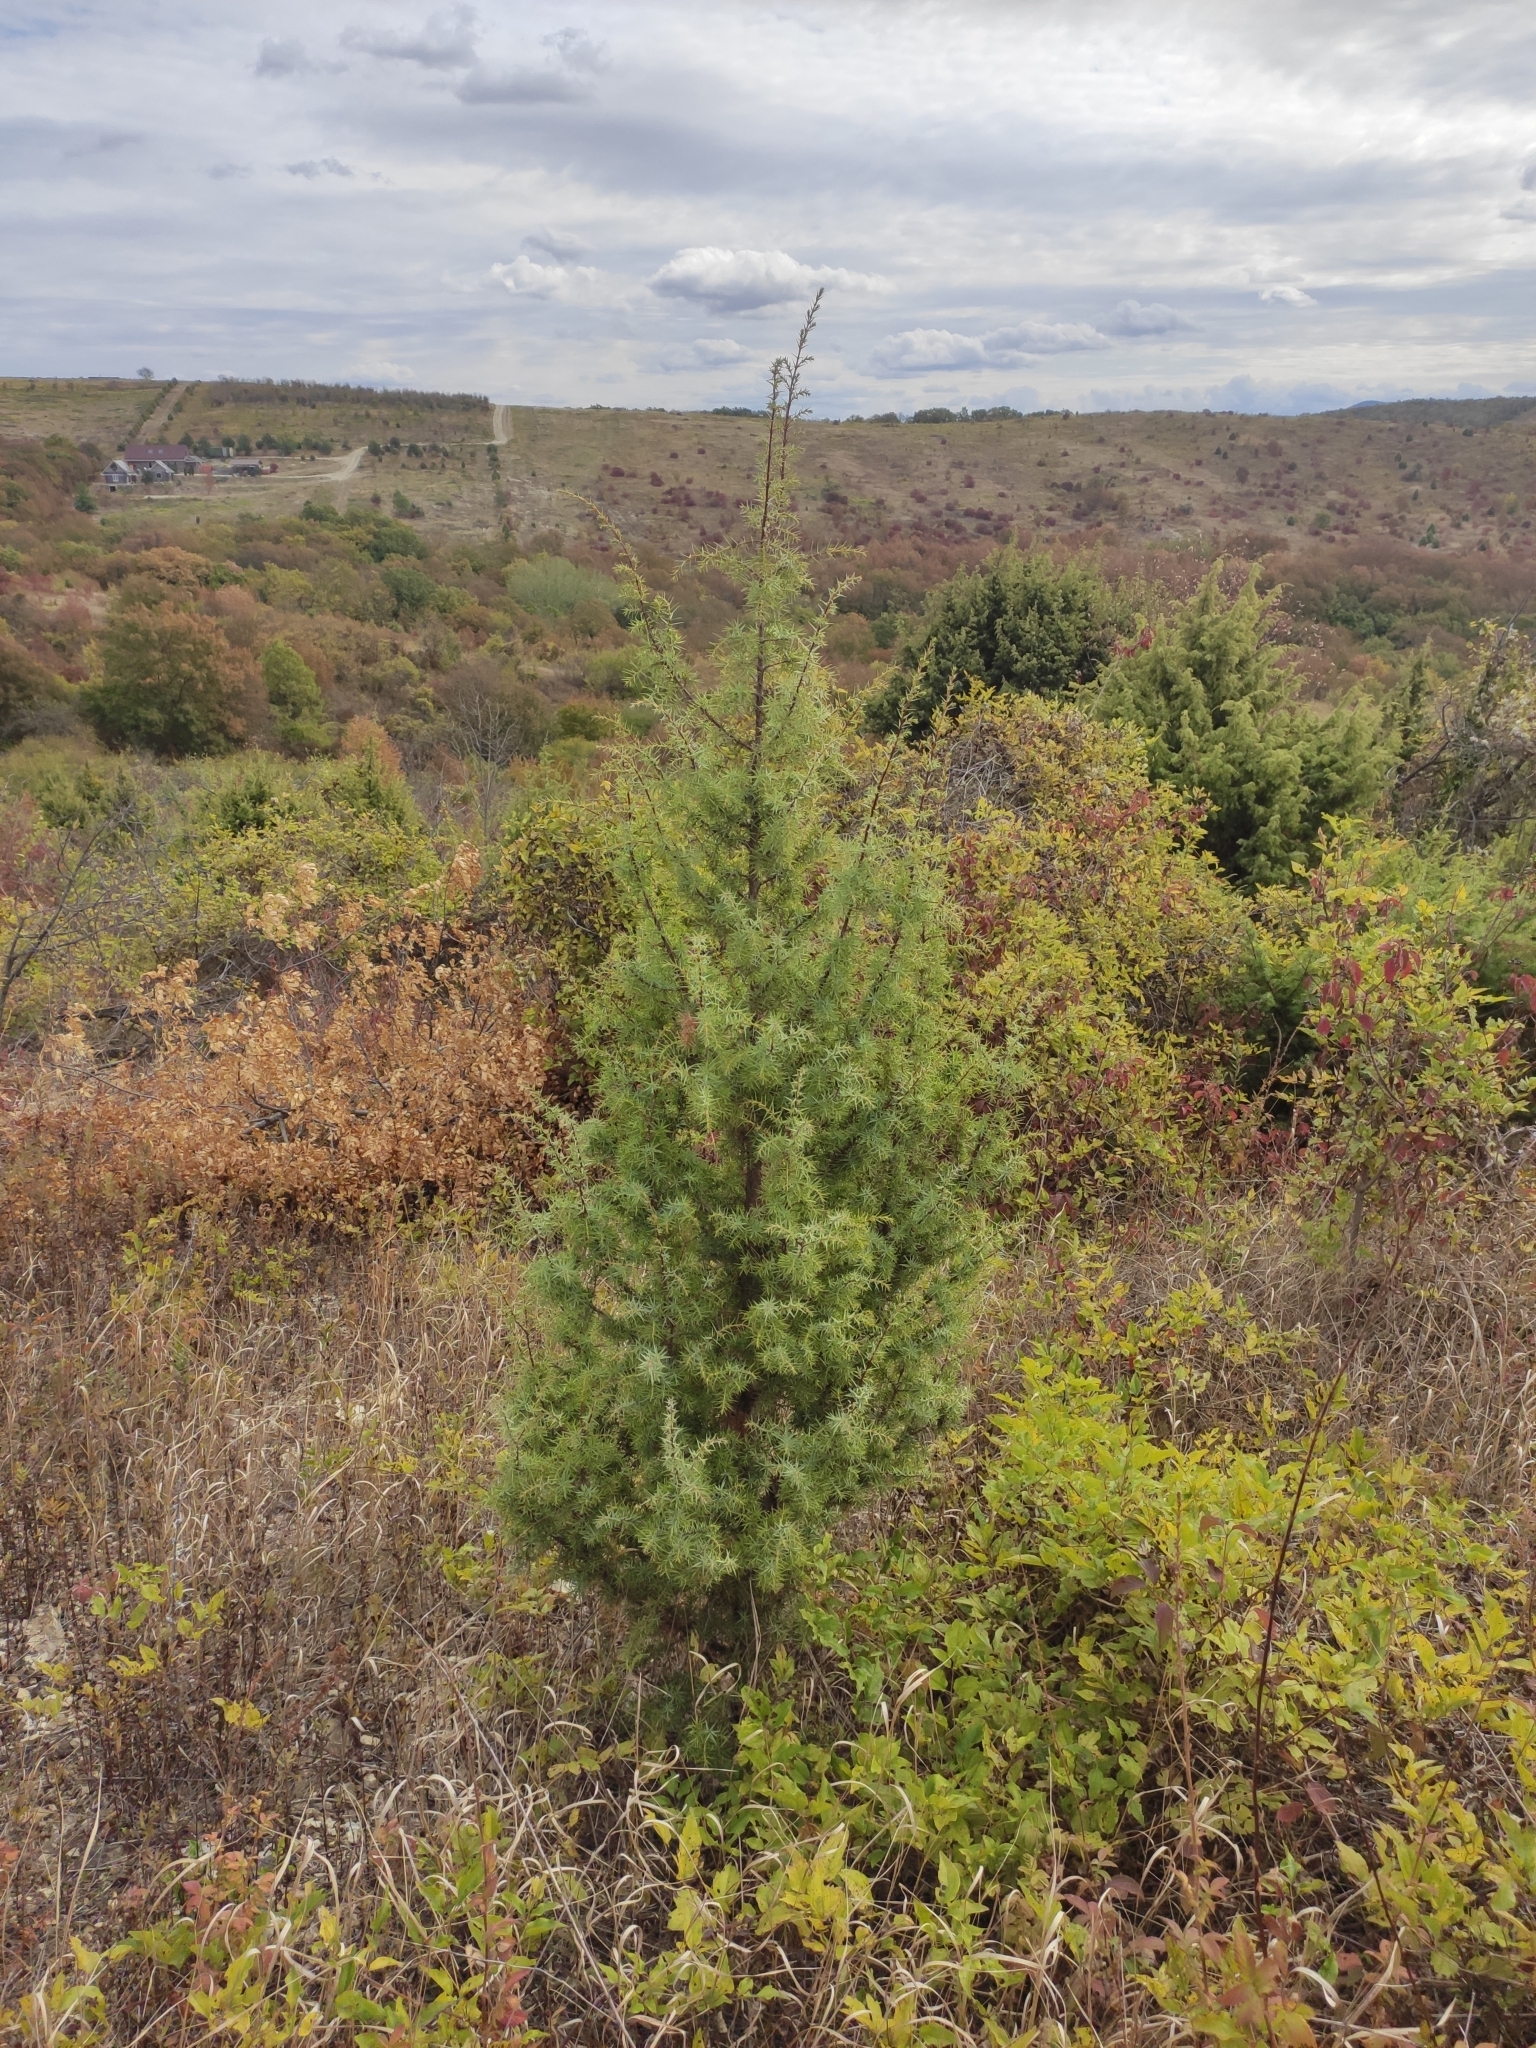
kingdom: Plantae
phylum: Tracheophyta
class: Pinopsida
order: Pinales
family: Cupressaceae
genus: Juniperus
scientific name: Juniperus oxycedrus
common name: Prickly juniper
